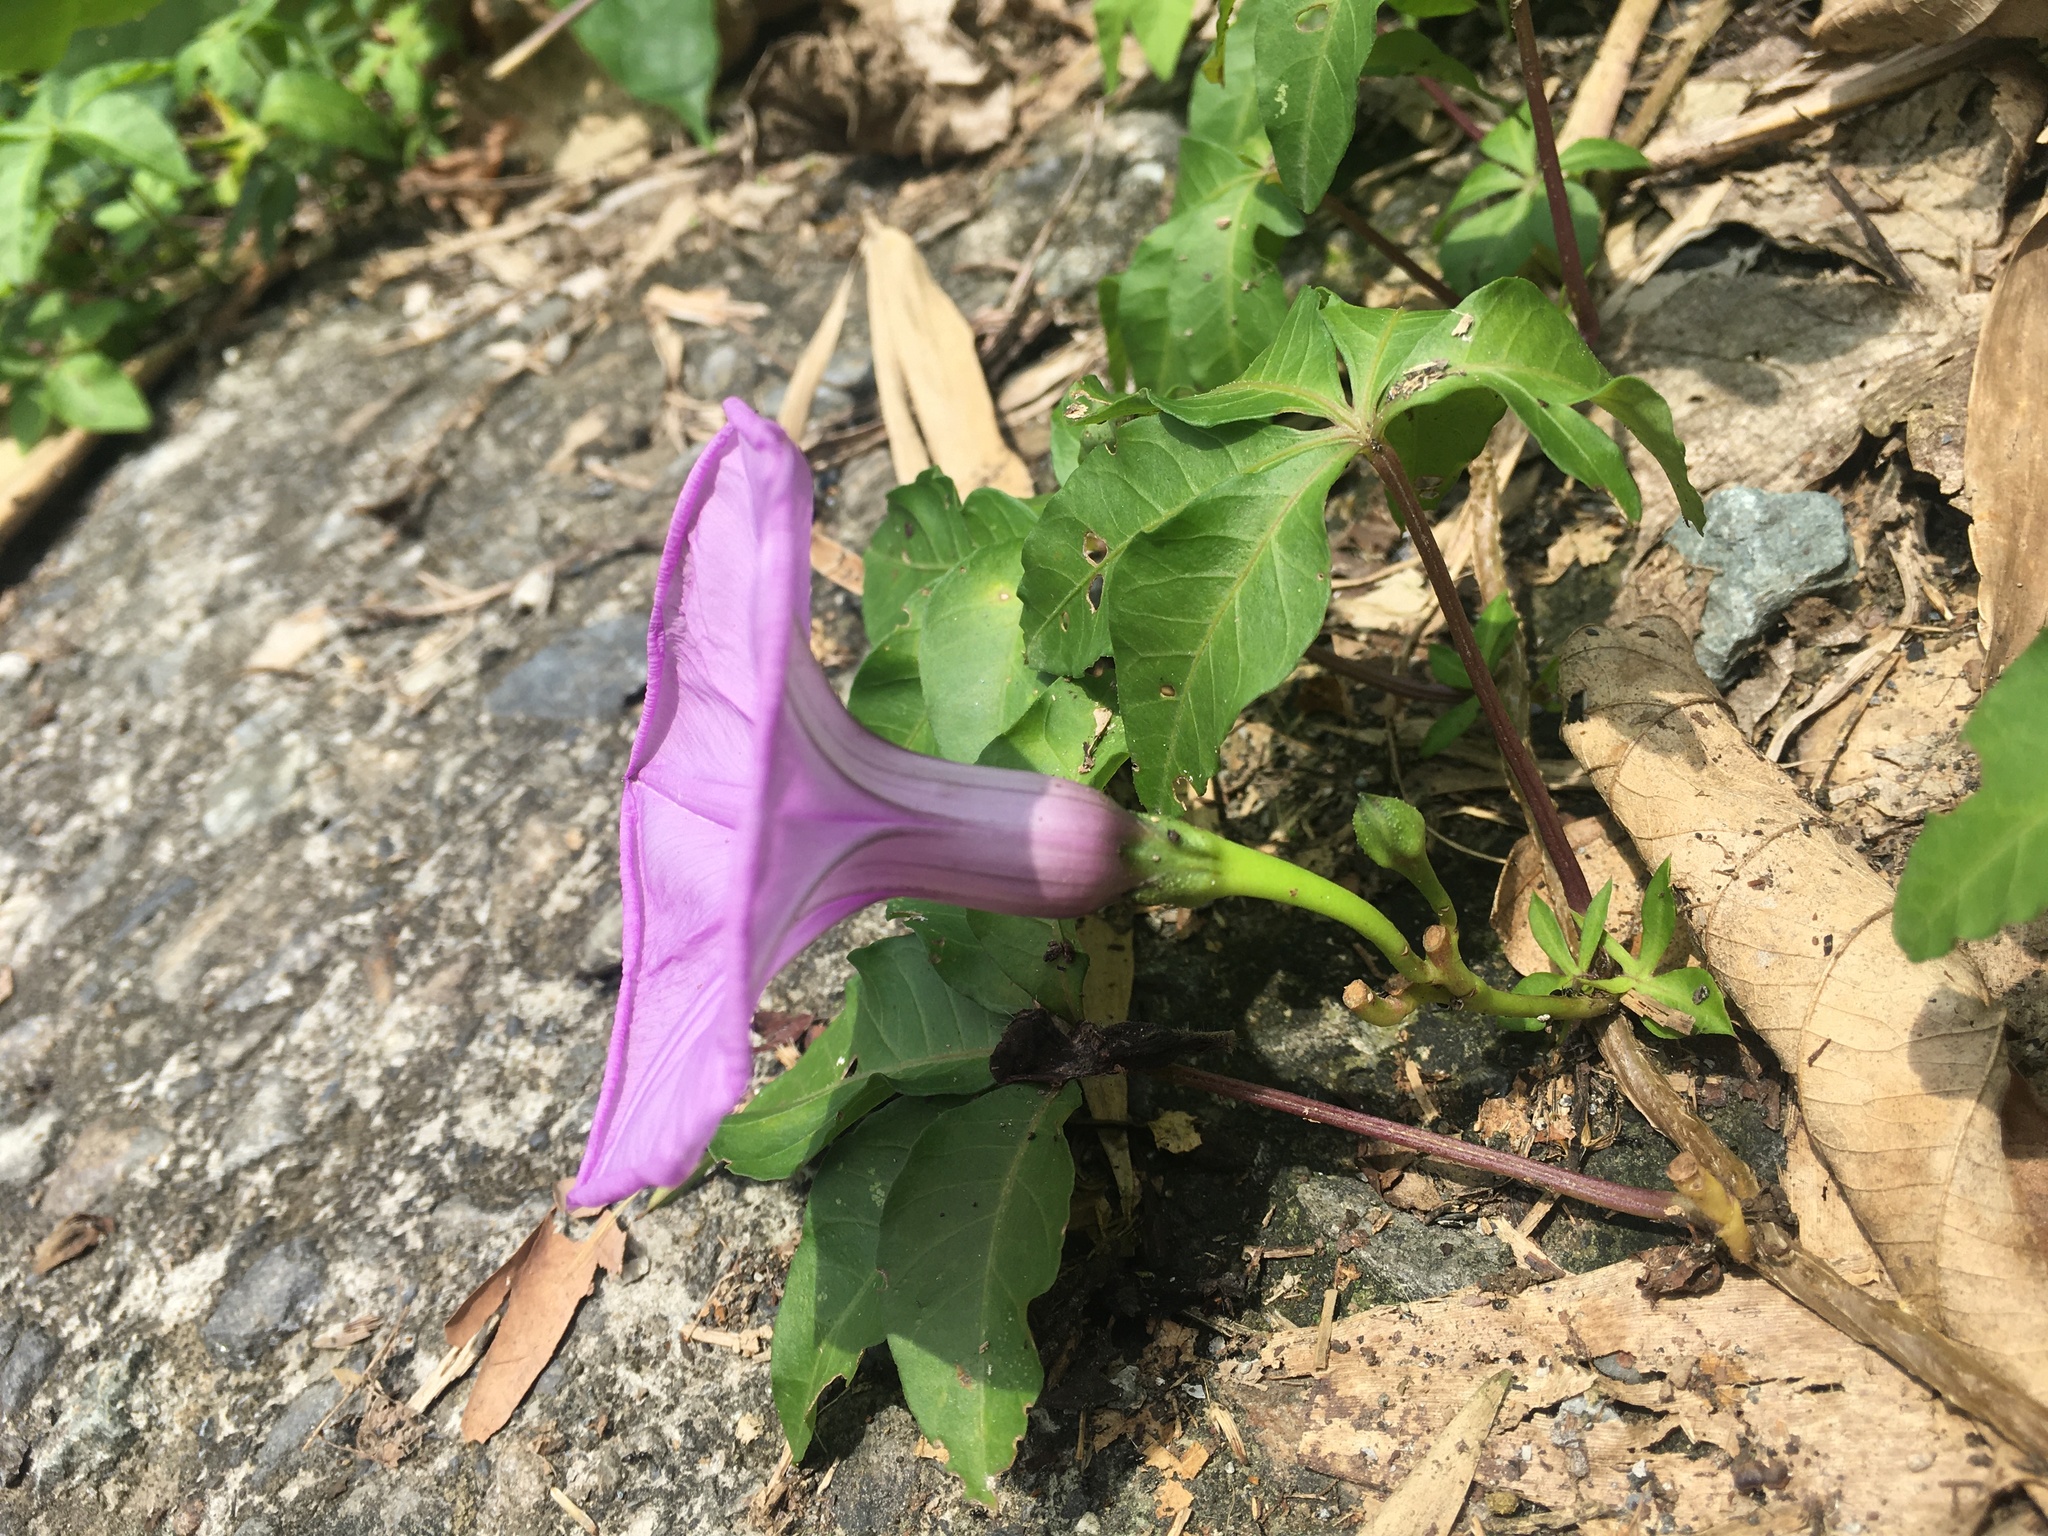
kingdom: Plantae
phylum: Tracheophyta
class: Magnoliopsida
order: Solanales
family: Convolvulaceae
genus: Ipomoea
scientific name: Ipomoea cairica
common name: Mile a minute vine
